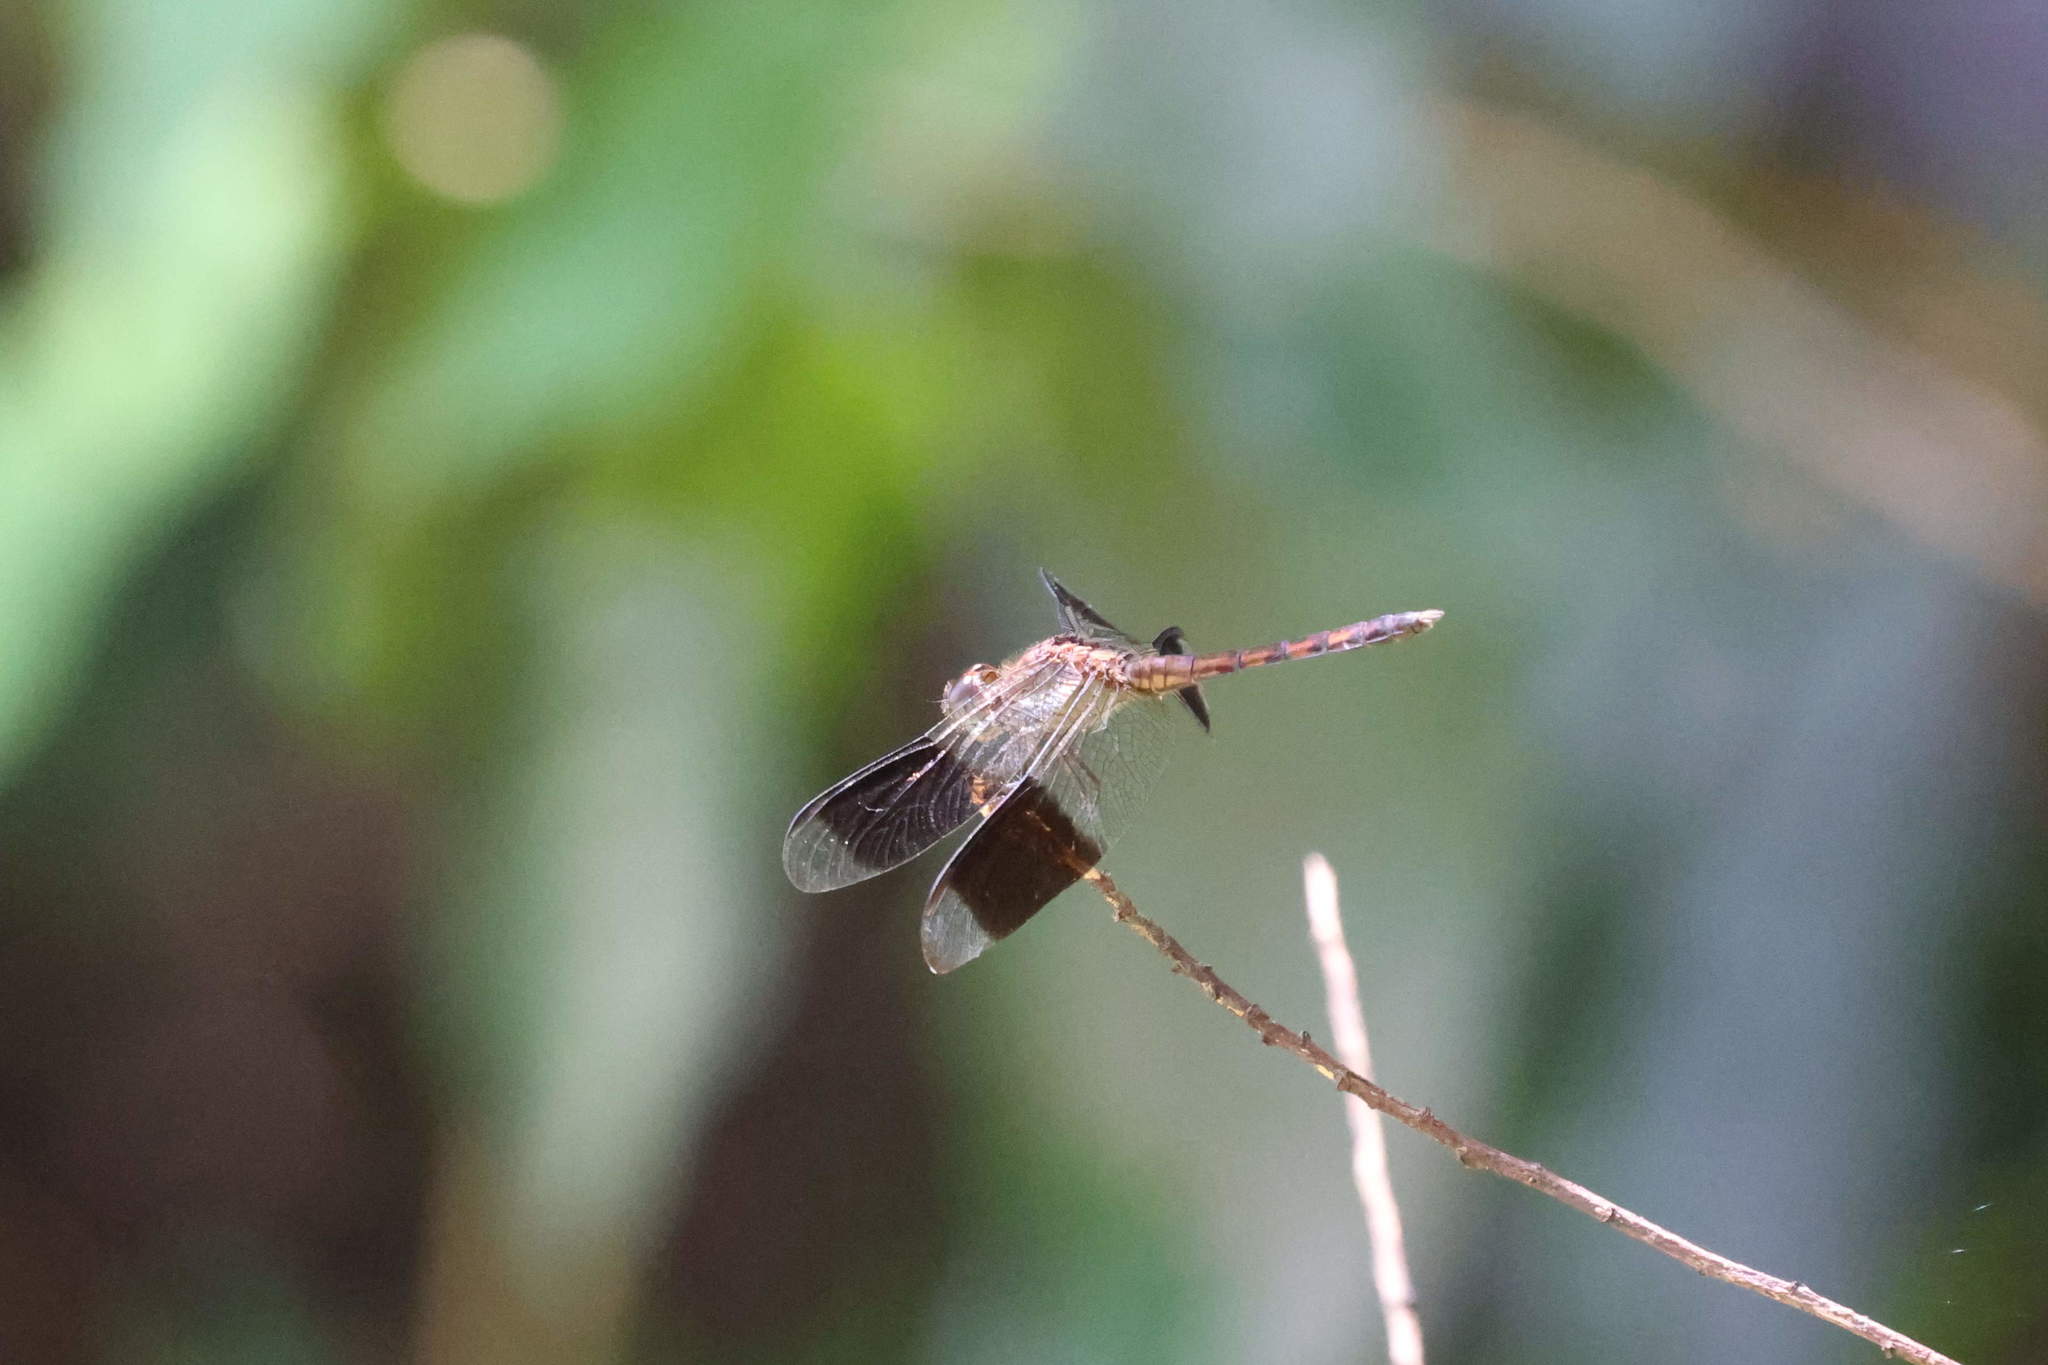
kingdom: Animalia
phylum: Arthropoda
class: Insecta
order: Odonata
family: Libellulidae
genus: Erythrodiplax
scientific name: Erythrodiplax umbrata
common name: Band-winged dragonlet
